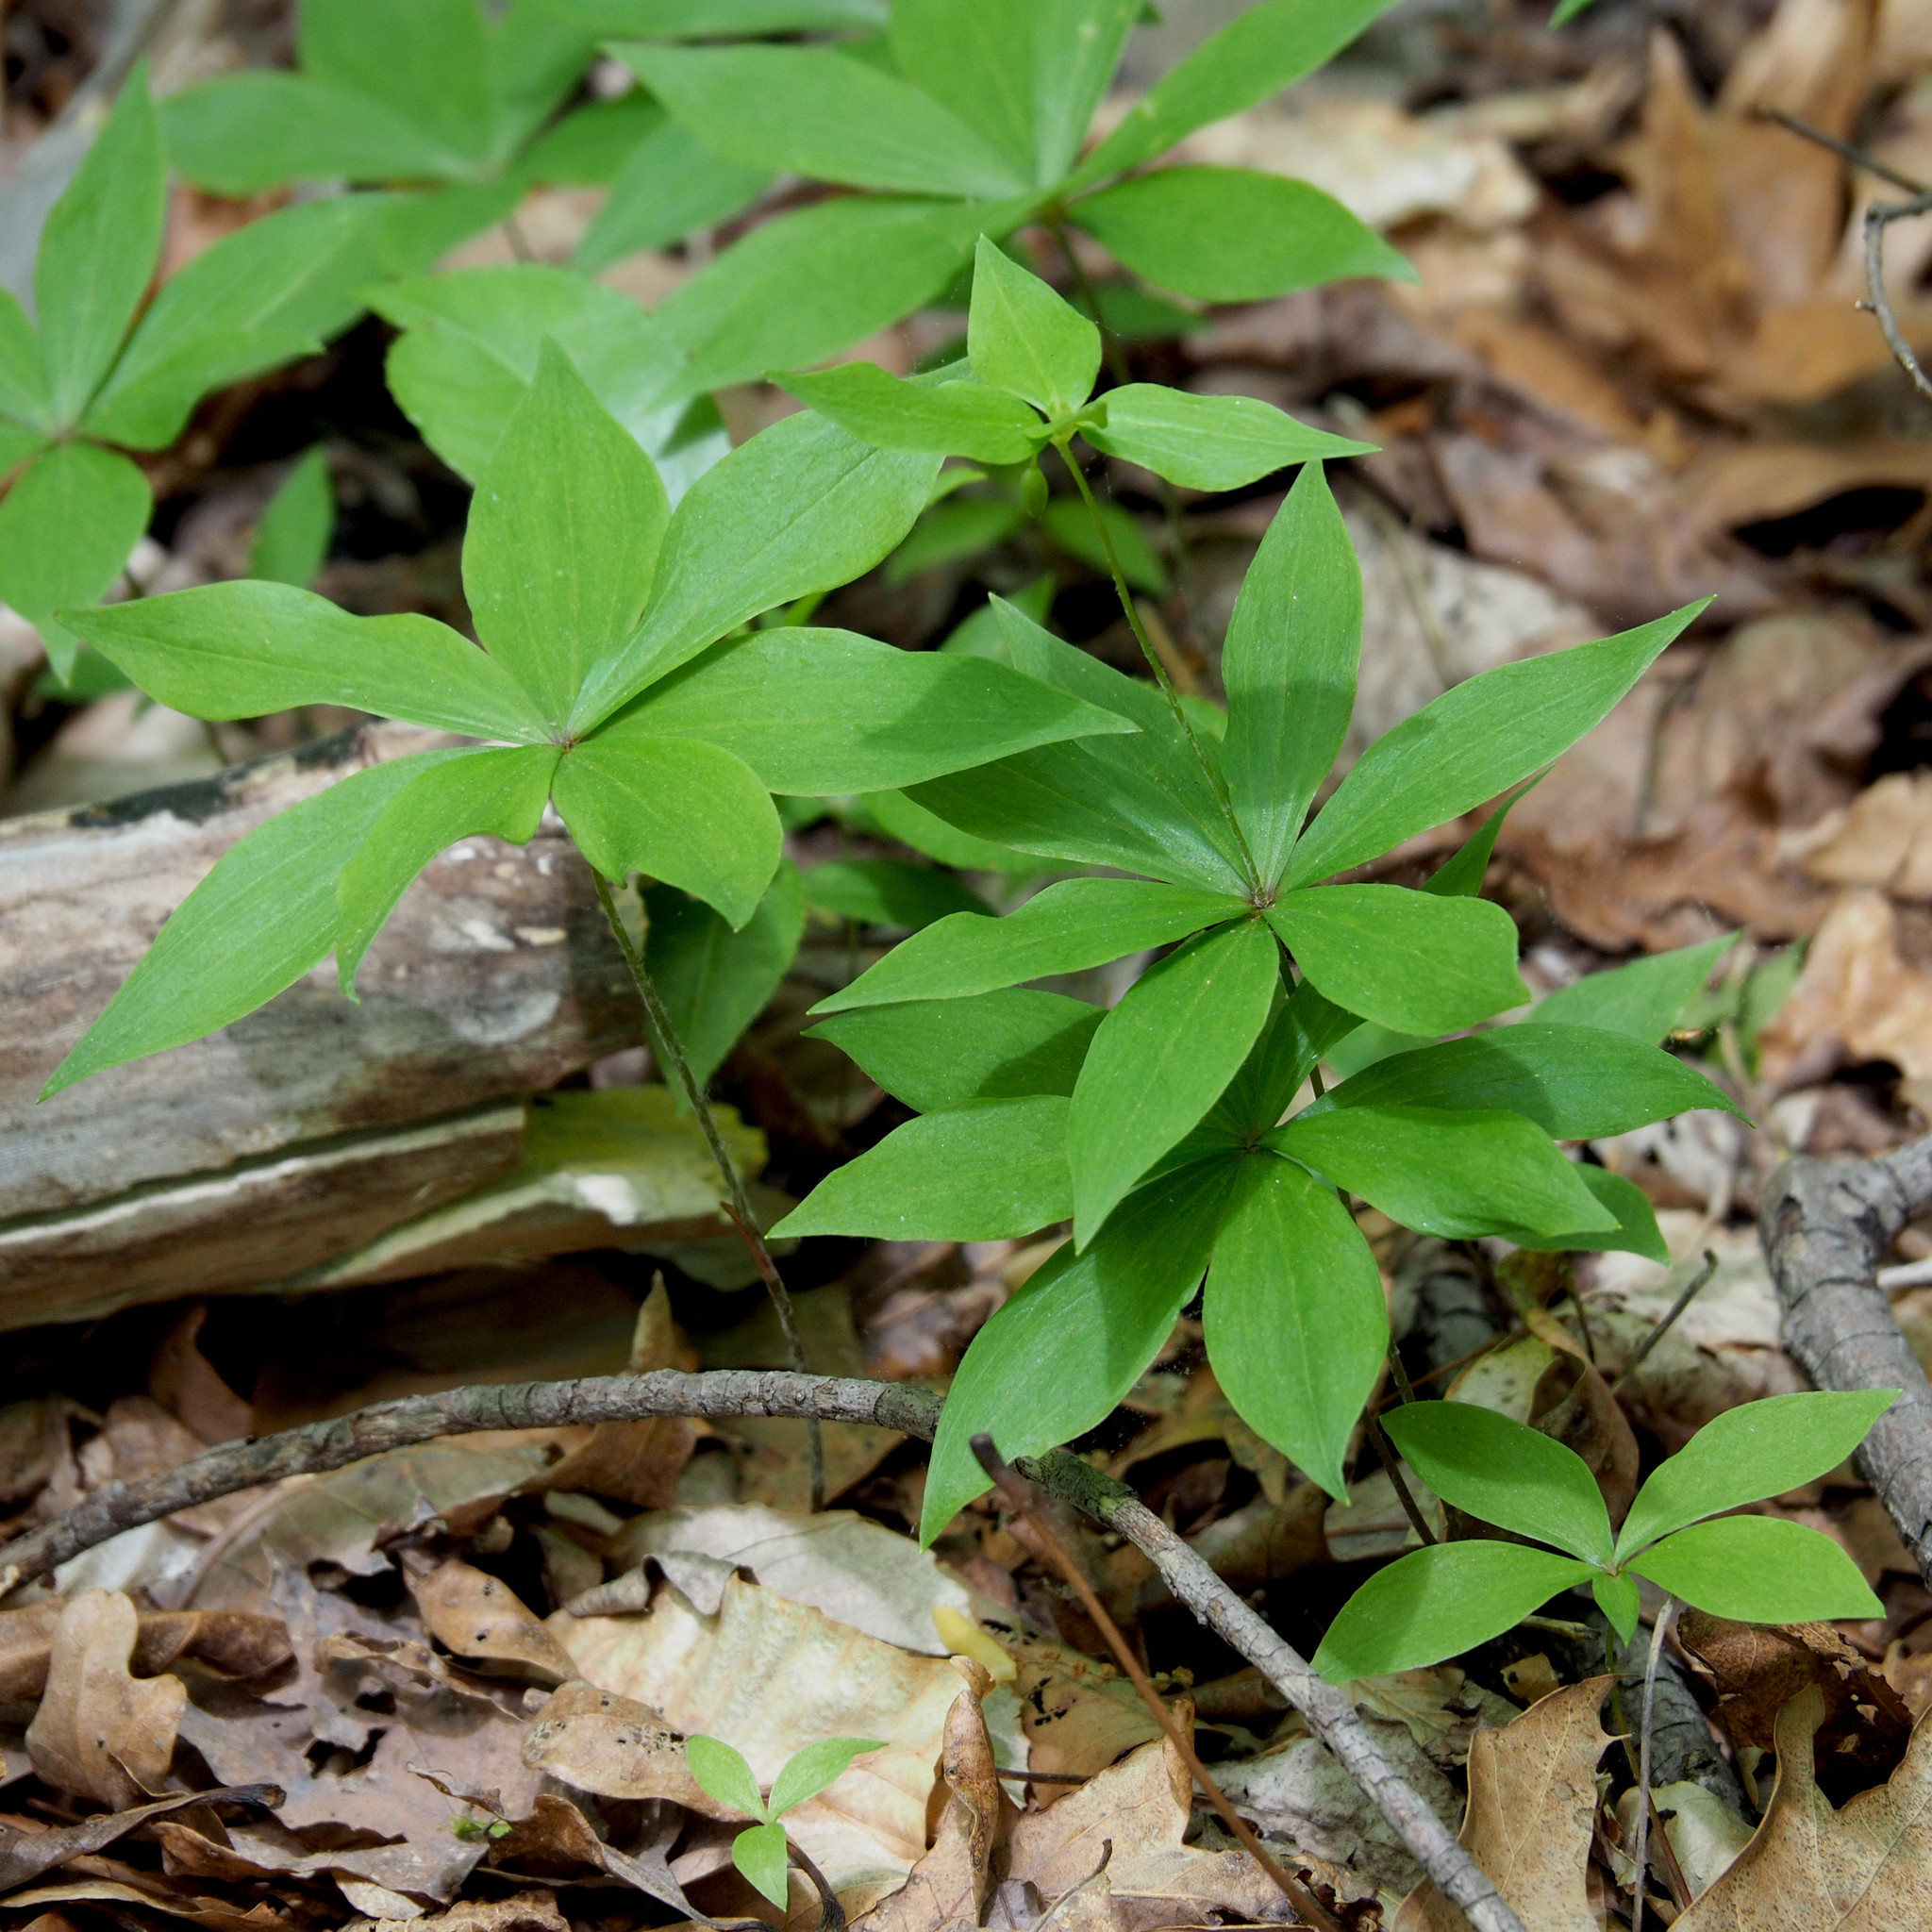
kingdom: Plantae
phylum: Tracheophyta
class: Liliopsida
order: Liliales
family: Liliaceae
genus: Medeola
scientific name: Medeola virginiana
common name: Indian cucumber-root
